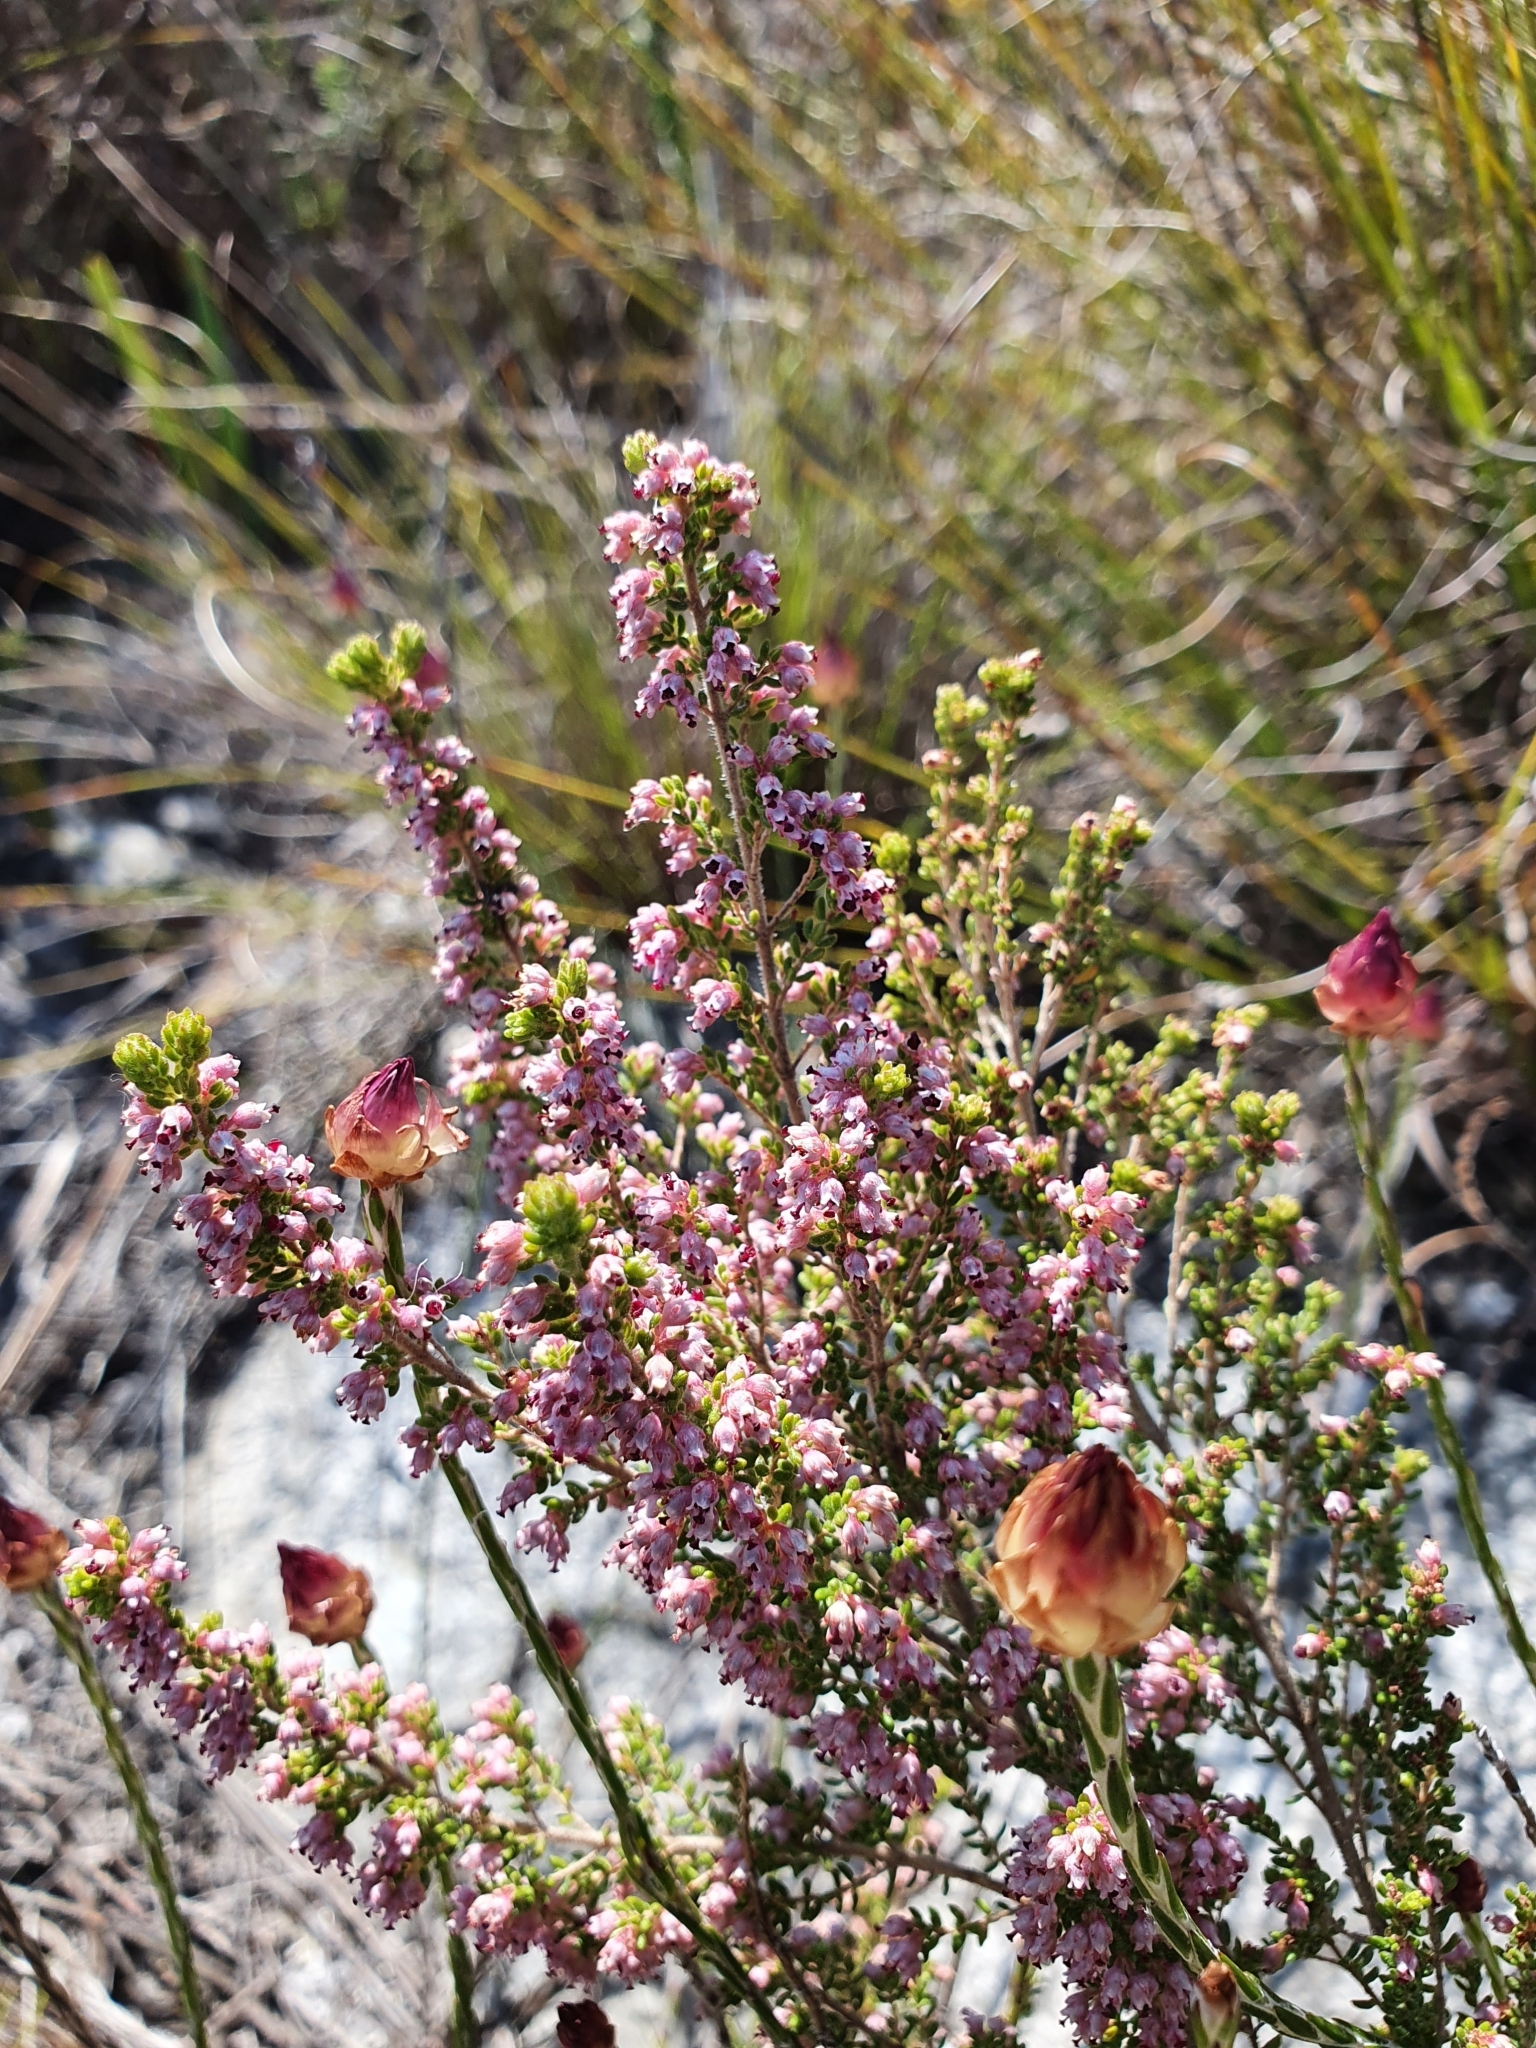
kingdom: Plantae
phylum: Tracheophyta
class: Magnoliopsida
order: Ericales
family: Ericaceae
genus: Erica
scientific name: Erica hispidula
